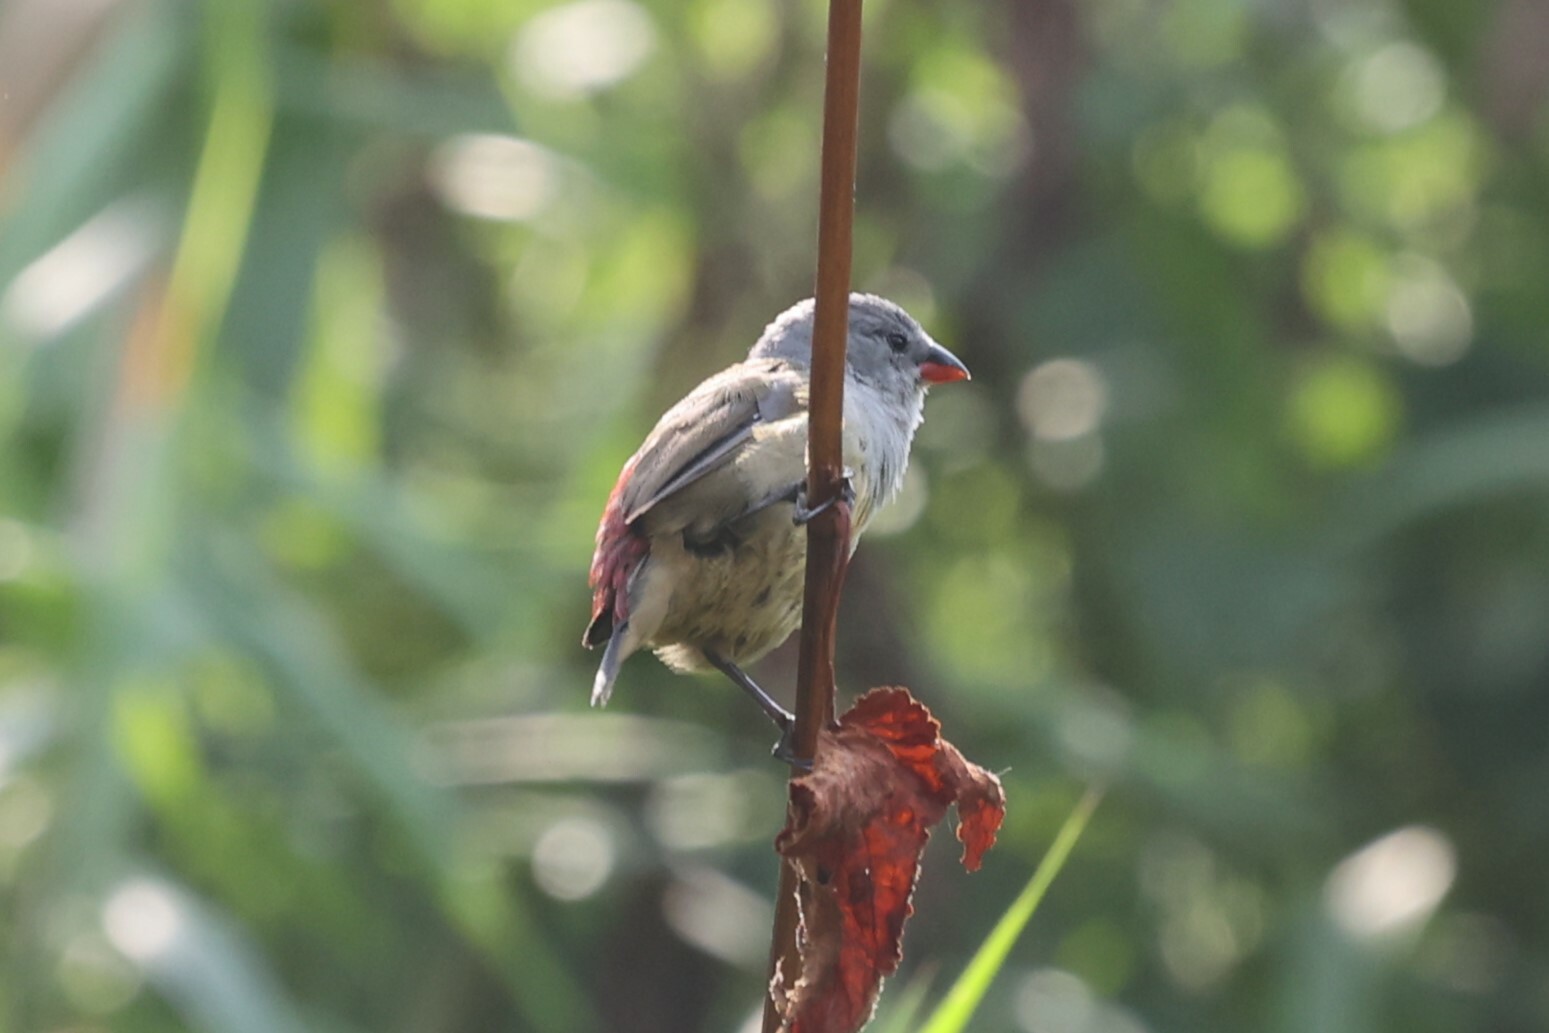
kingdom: Animalia
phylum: Chordata
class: Aves
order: Passeriformes
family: Estrildidae
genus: Coccopygia
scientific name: Coccopygia quartinia
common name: Yellow-bellied waxbill
